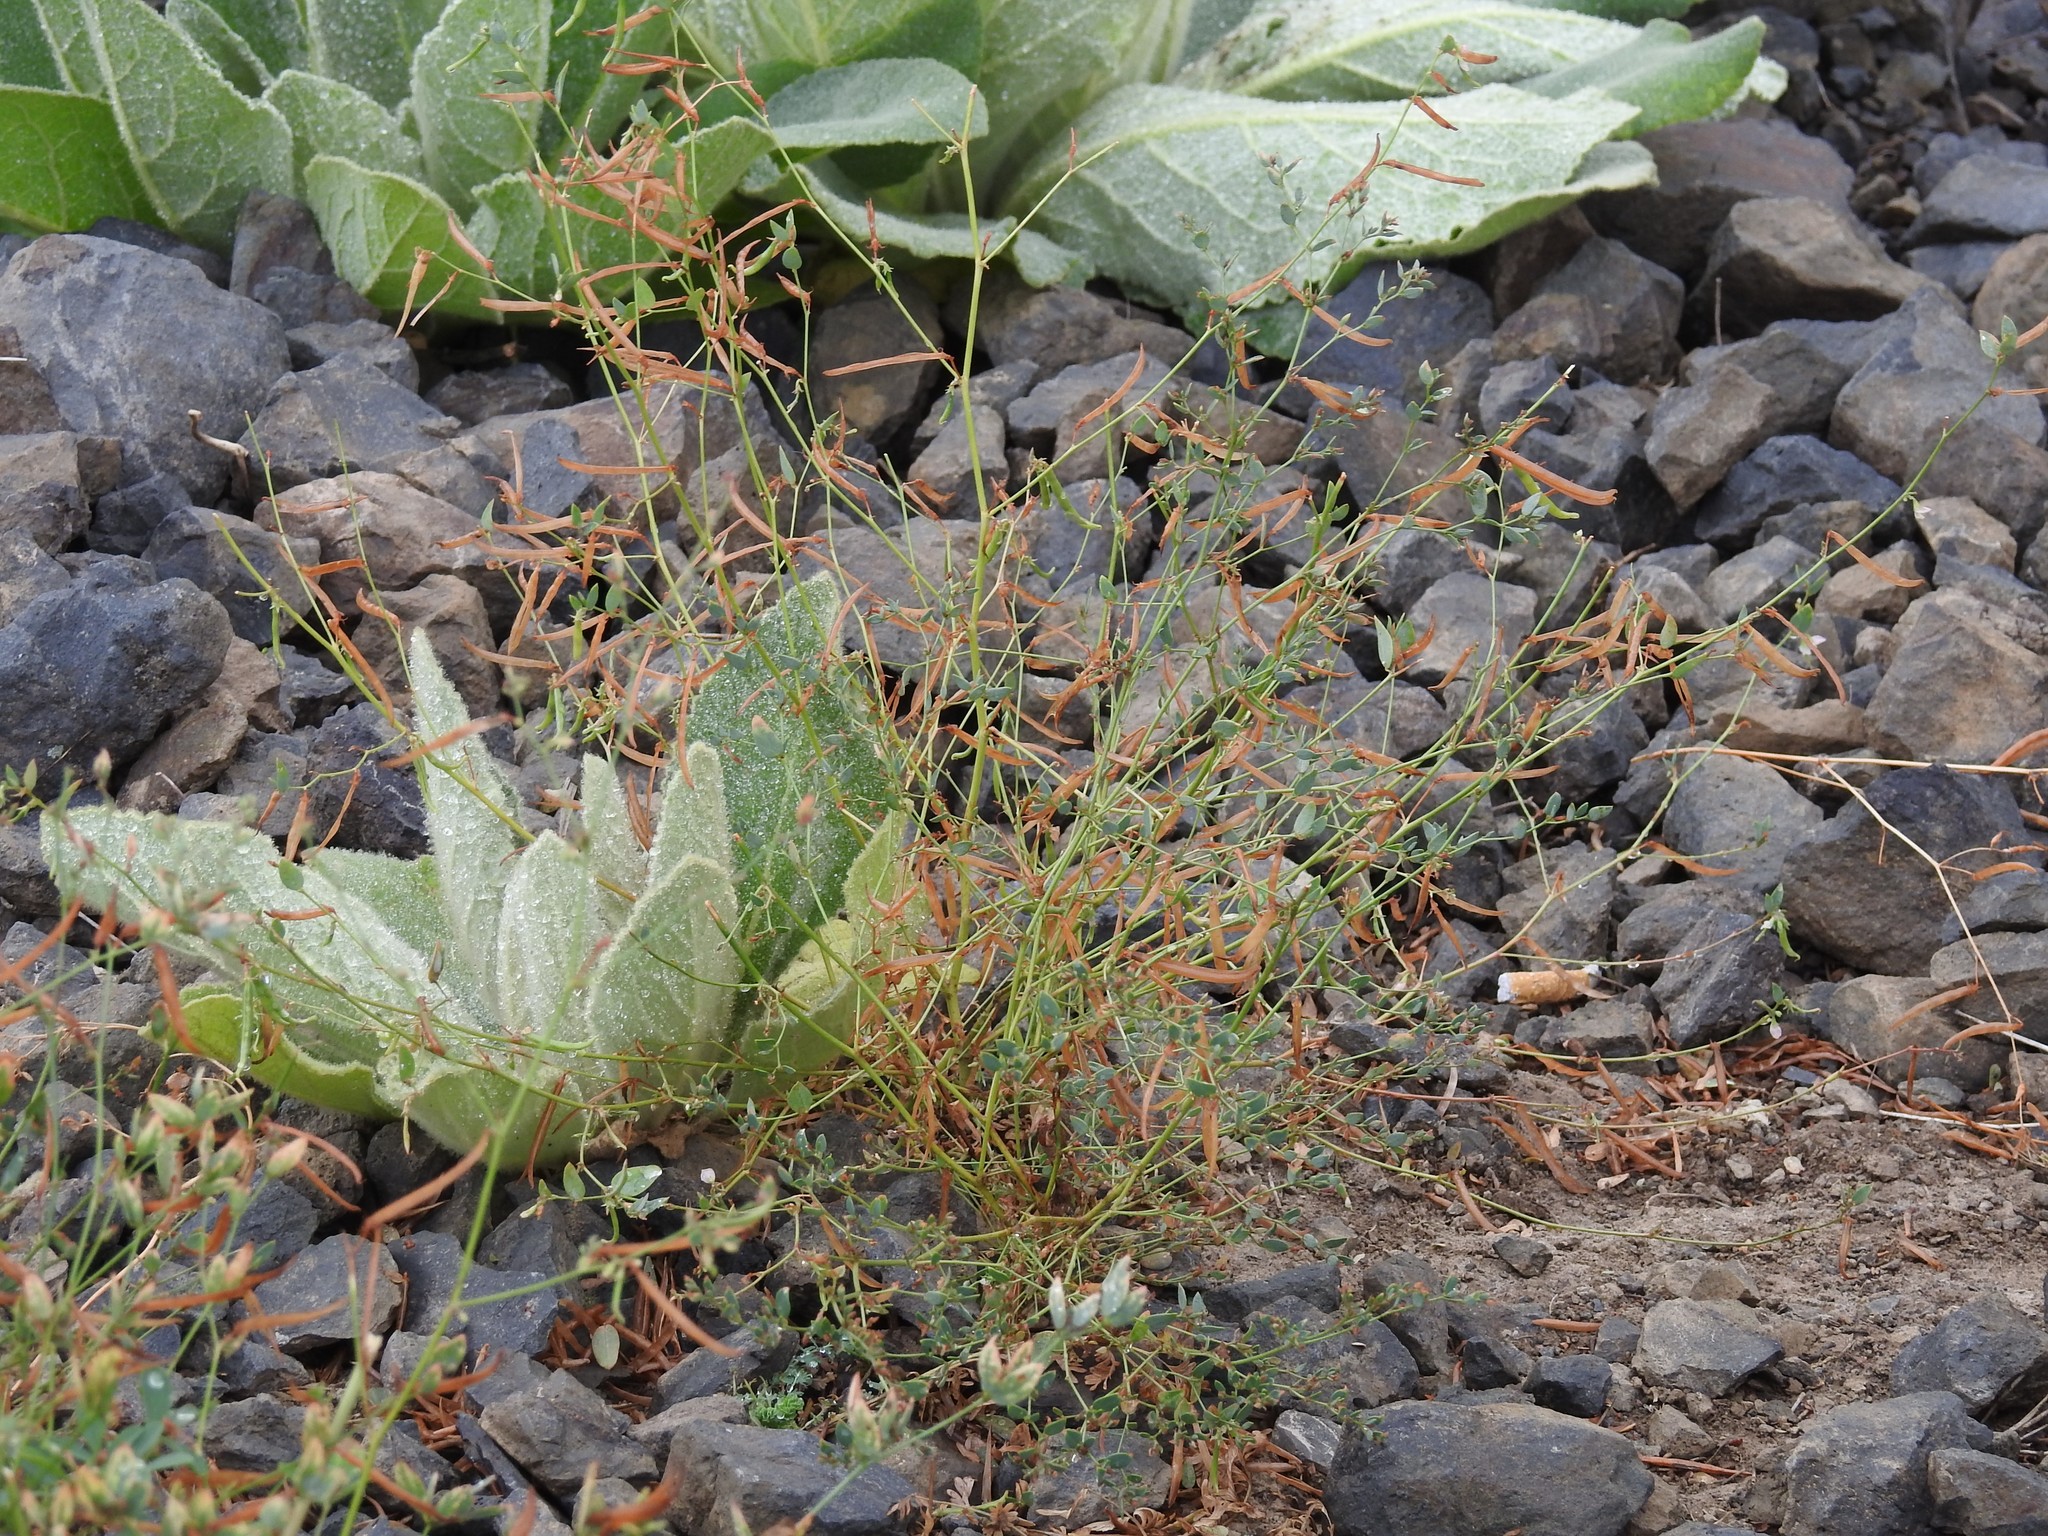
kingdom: Plantae
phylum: Tracheophyta
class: Magnoliopsida
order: Fabales
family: Fabaceae
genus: Acmispon
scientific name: Acmispon americanus
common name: American bird's-foot trefoil
